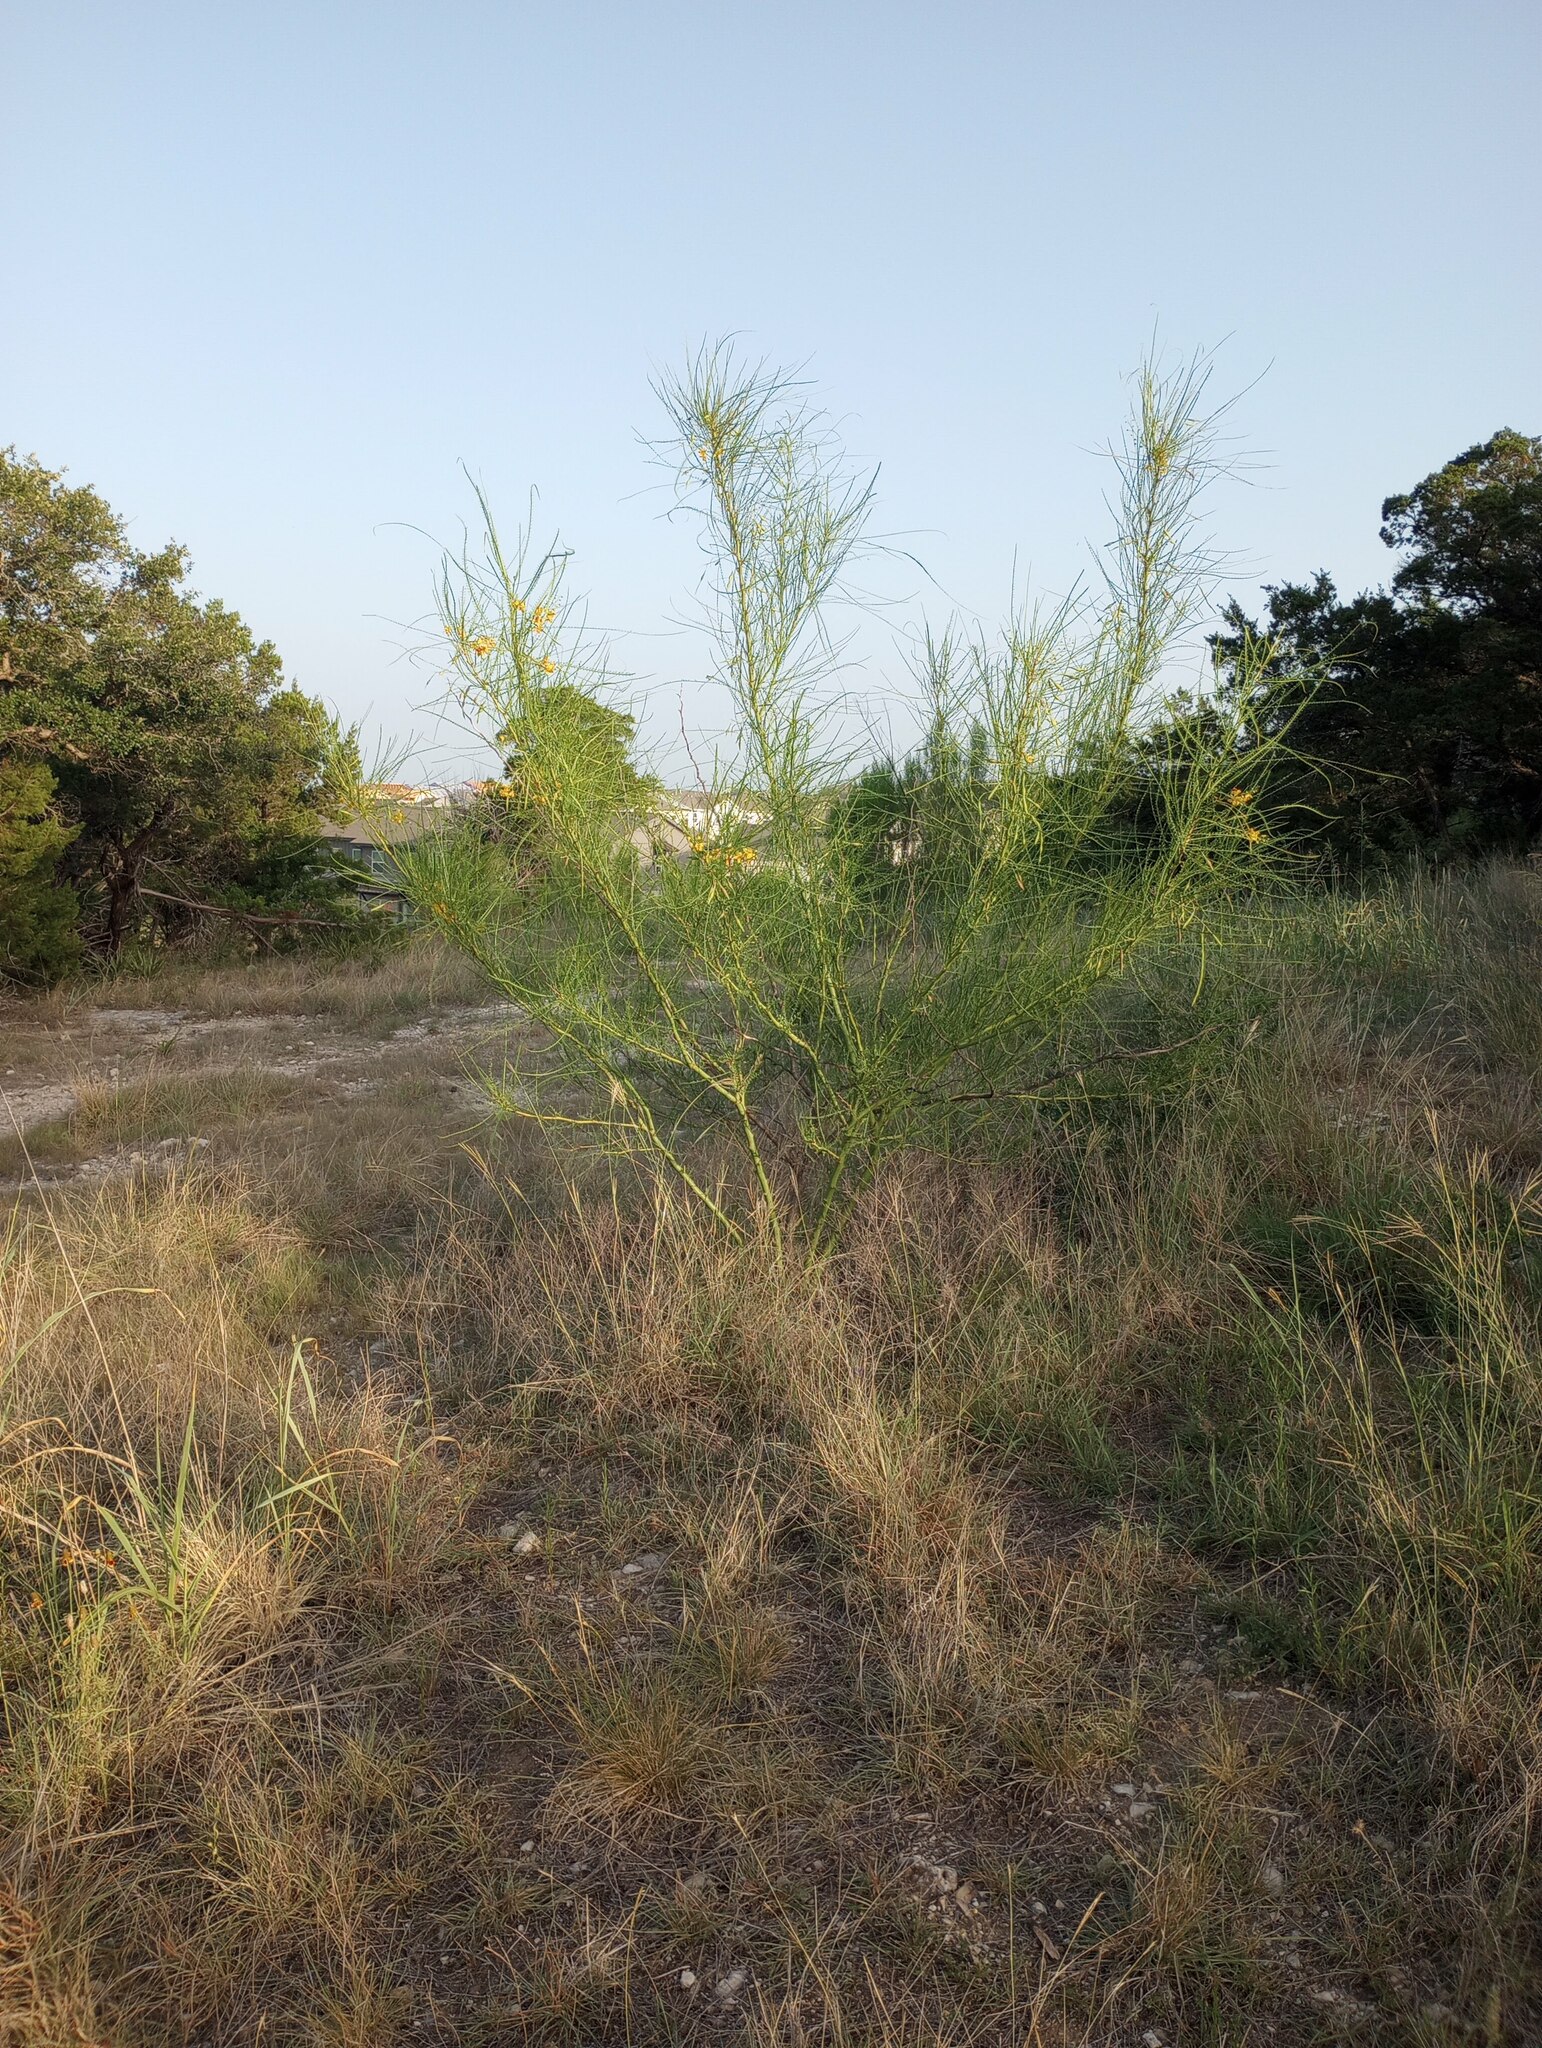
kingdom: Plantae
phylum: Tracheophyta
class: Magnoliopsida
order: Fabales
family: Fabaceae
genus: Parkinsonia
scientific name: Parkinsonia aculeata
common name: Jerusalem thorn
